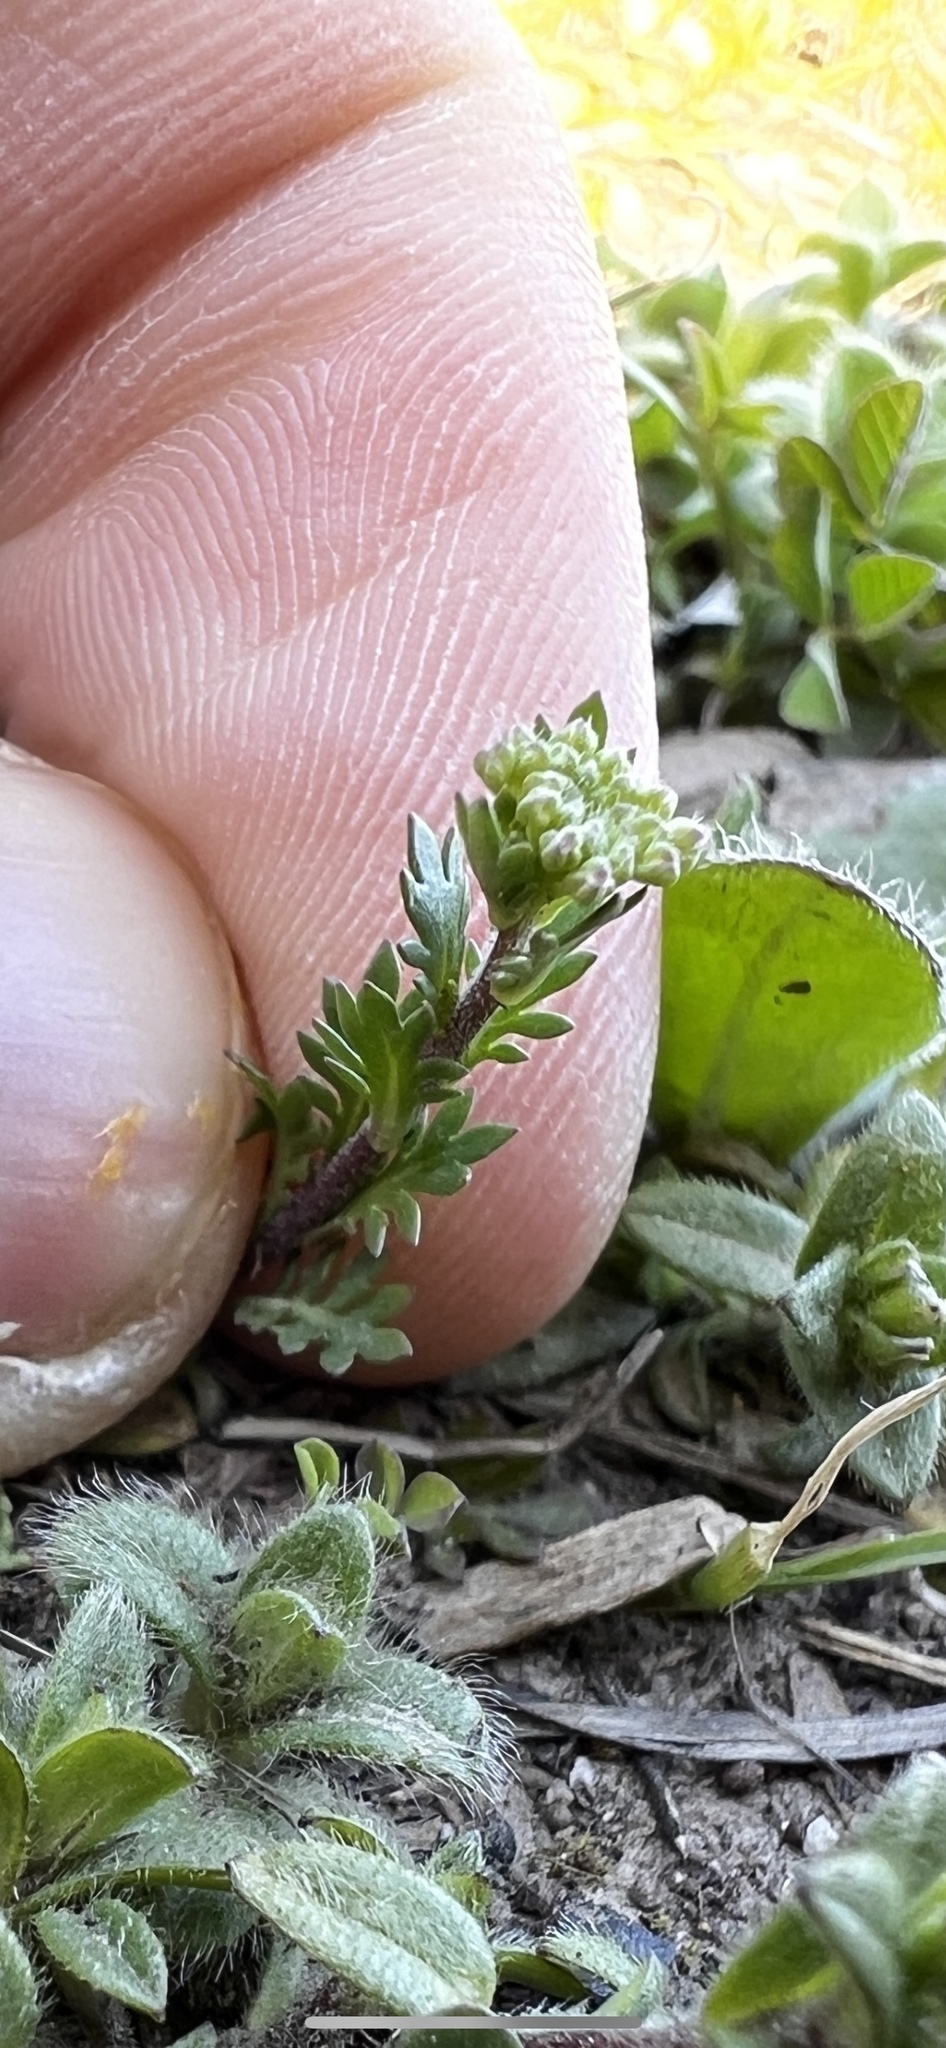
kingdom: Plantae
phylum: Tracheophyta
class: Magnoliopsida
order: Brassicales
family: Brassicaceae
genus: Lepidium
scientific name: Lepidium oblongum
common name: Veiny pepperweed
